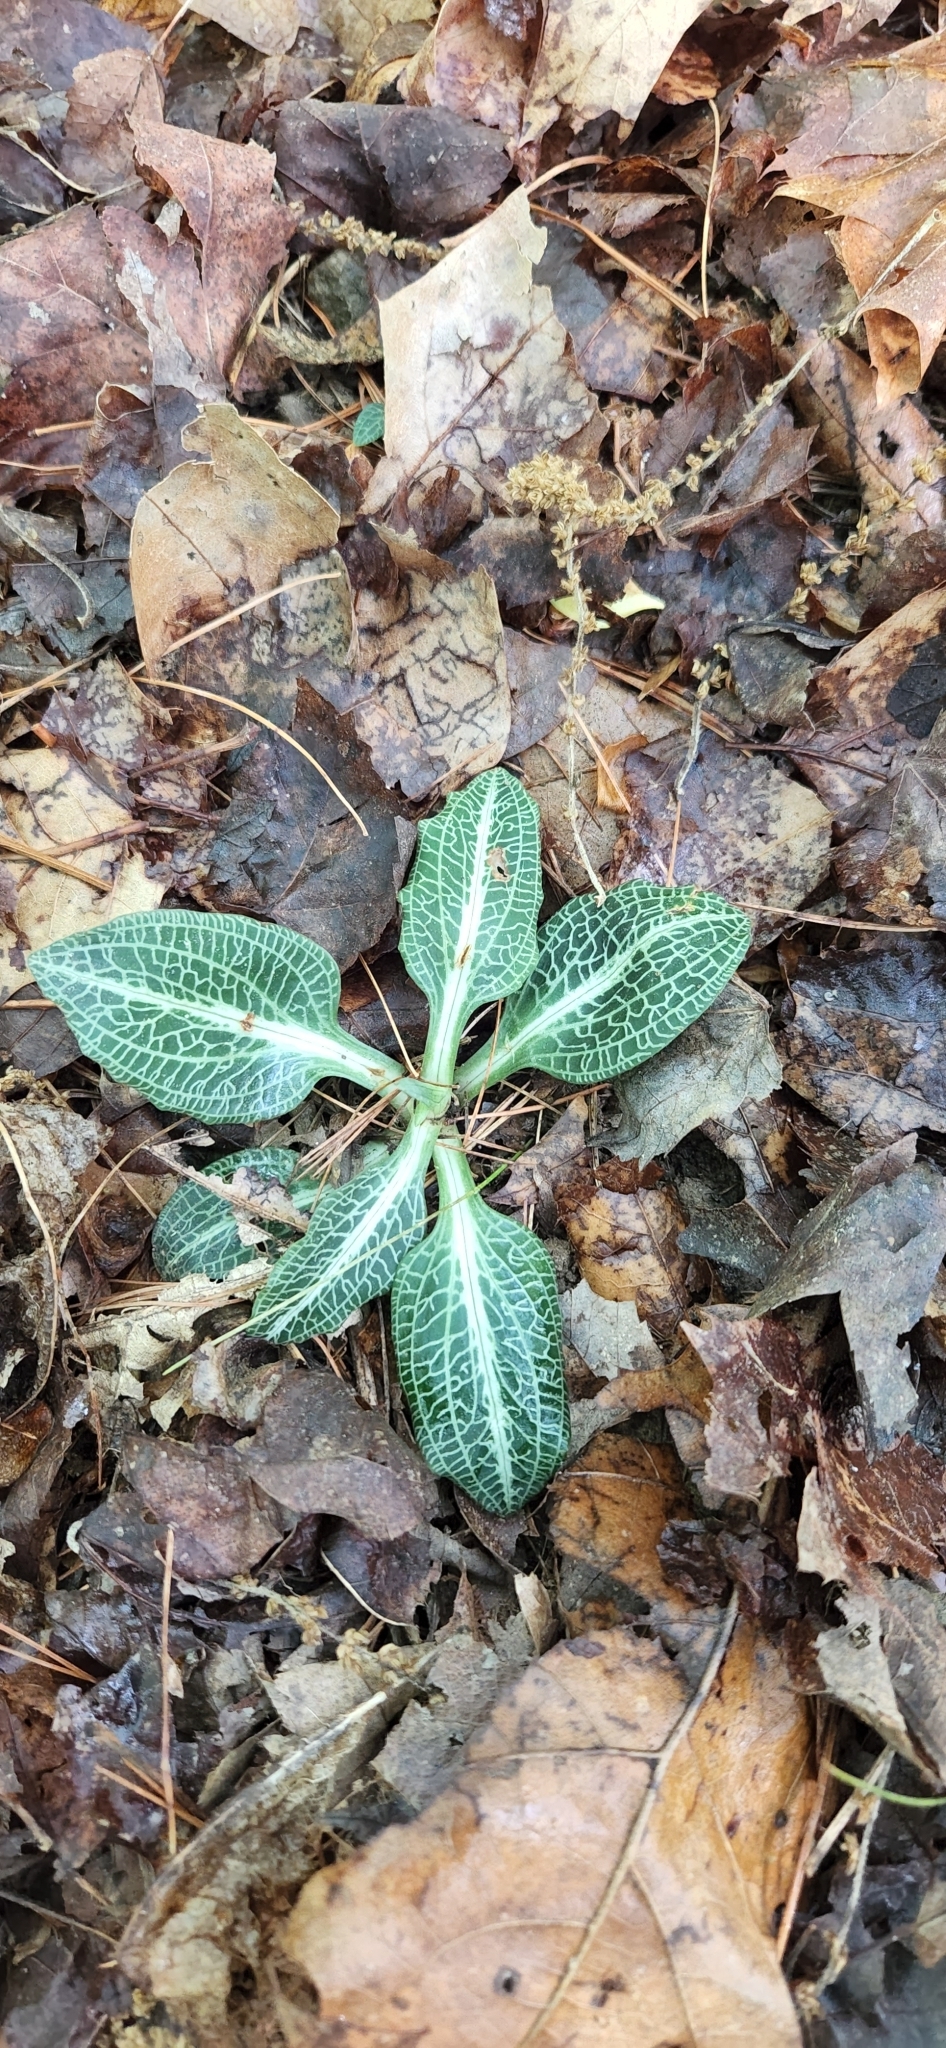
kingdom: Plantae
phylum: Tracheophyta
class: Liliopsida
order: Asparagales
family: Orchidaceae
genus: Goodyera
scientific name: Goodyera pubescens
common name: Downy rattlesnake-plantain
